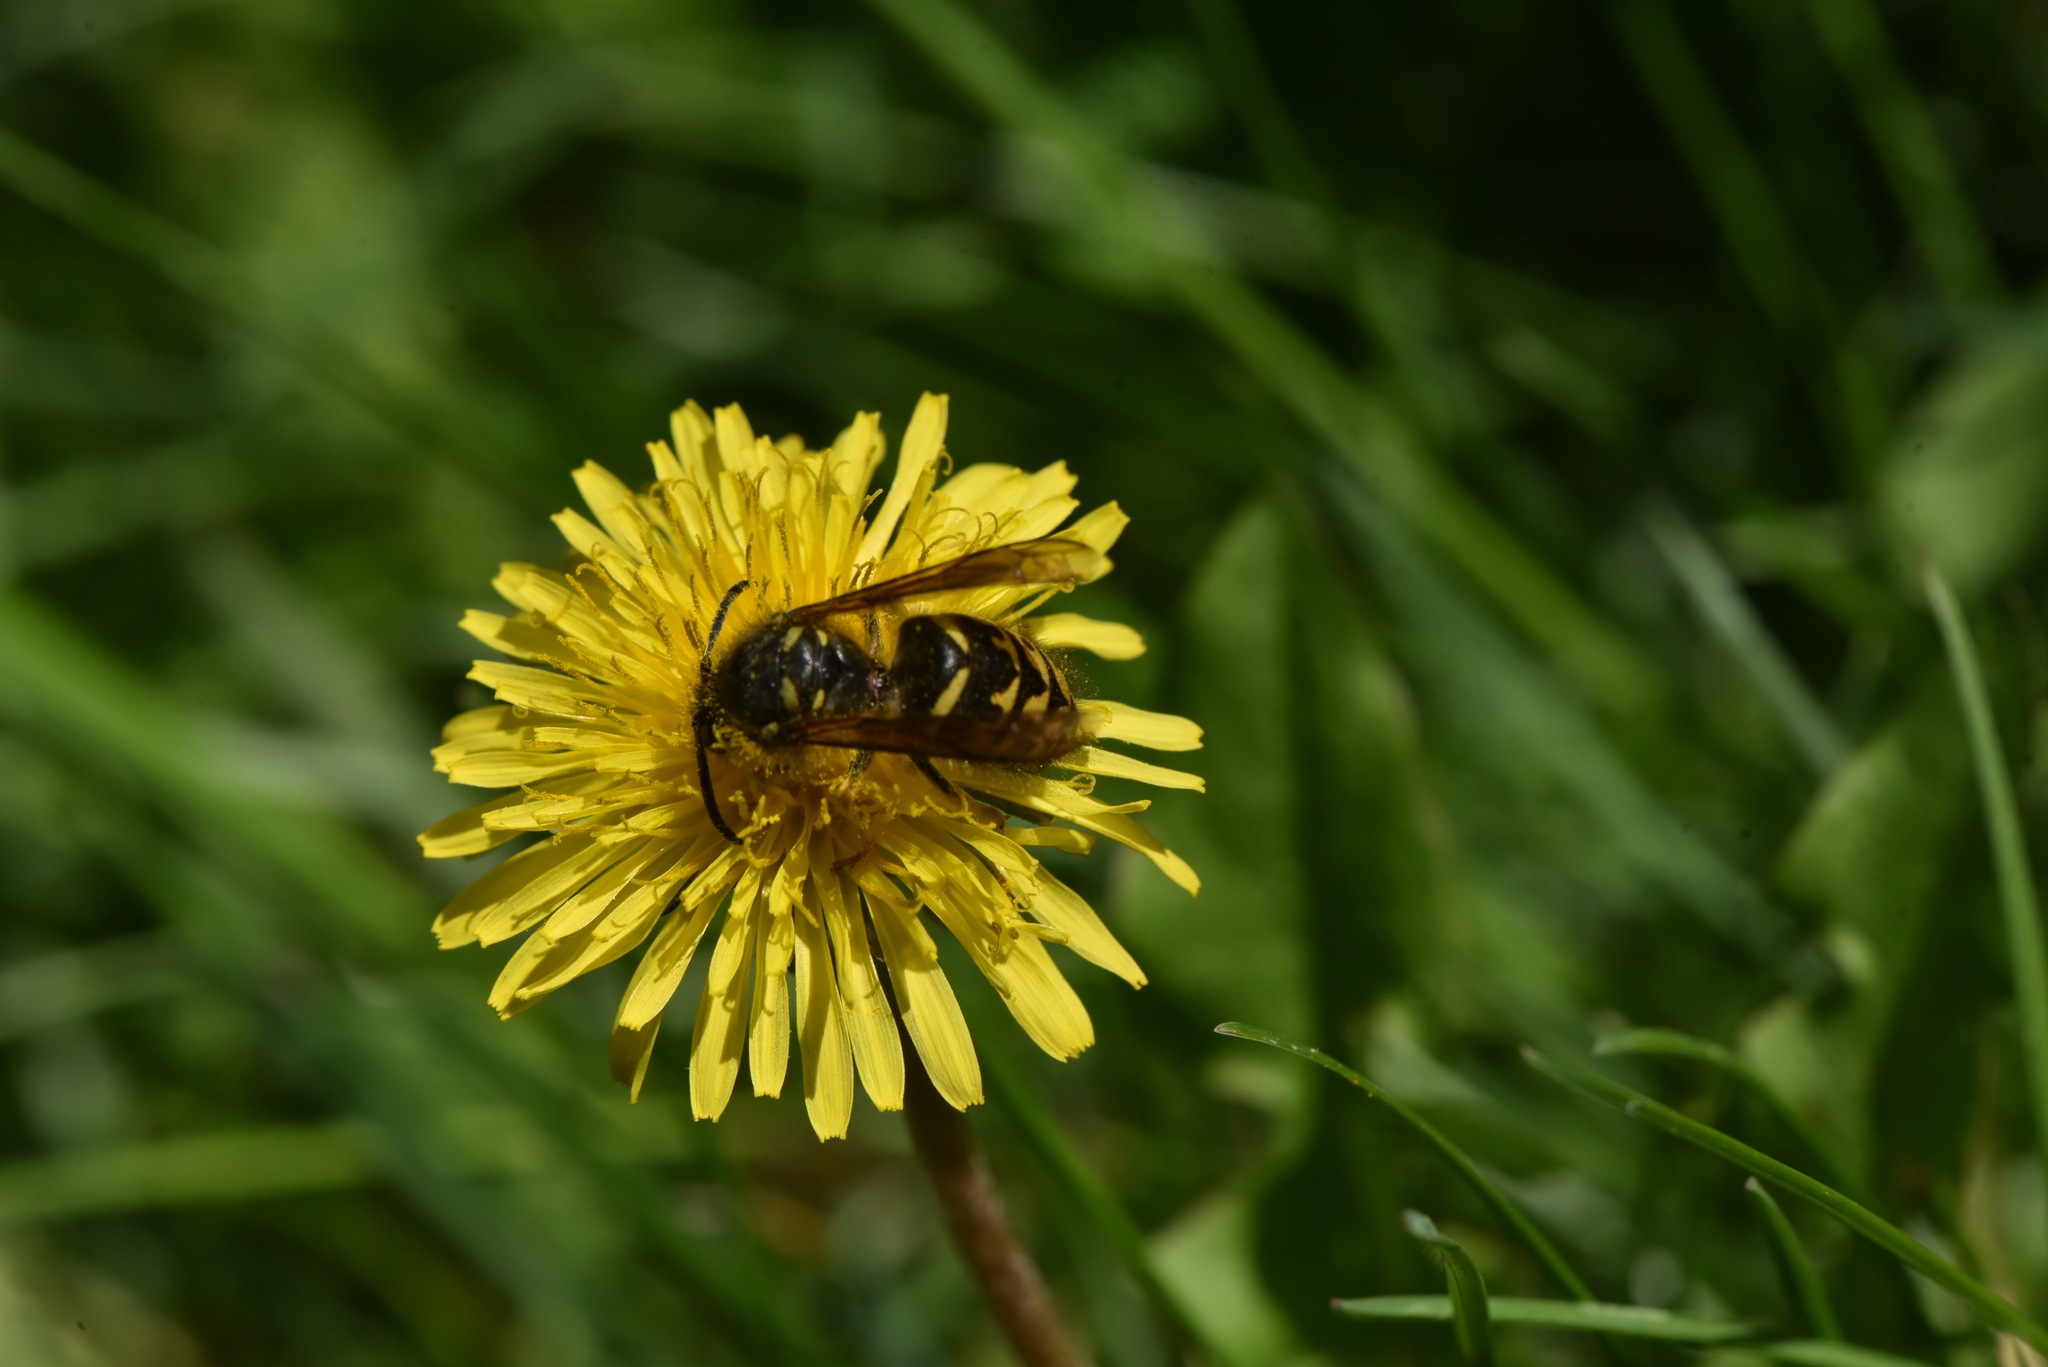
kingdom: Animalia
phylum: Arthropoda
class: Insecta
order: Hymenoptera
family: Vespidae
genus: Dolichovespula
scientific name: Dolichovespula arenaria
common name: Aerial yellowjacket
